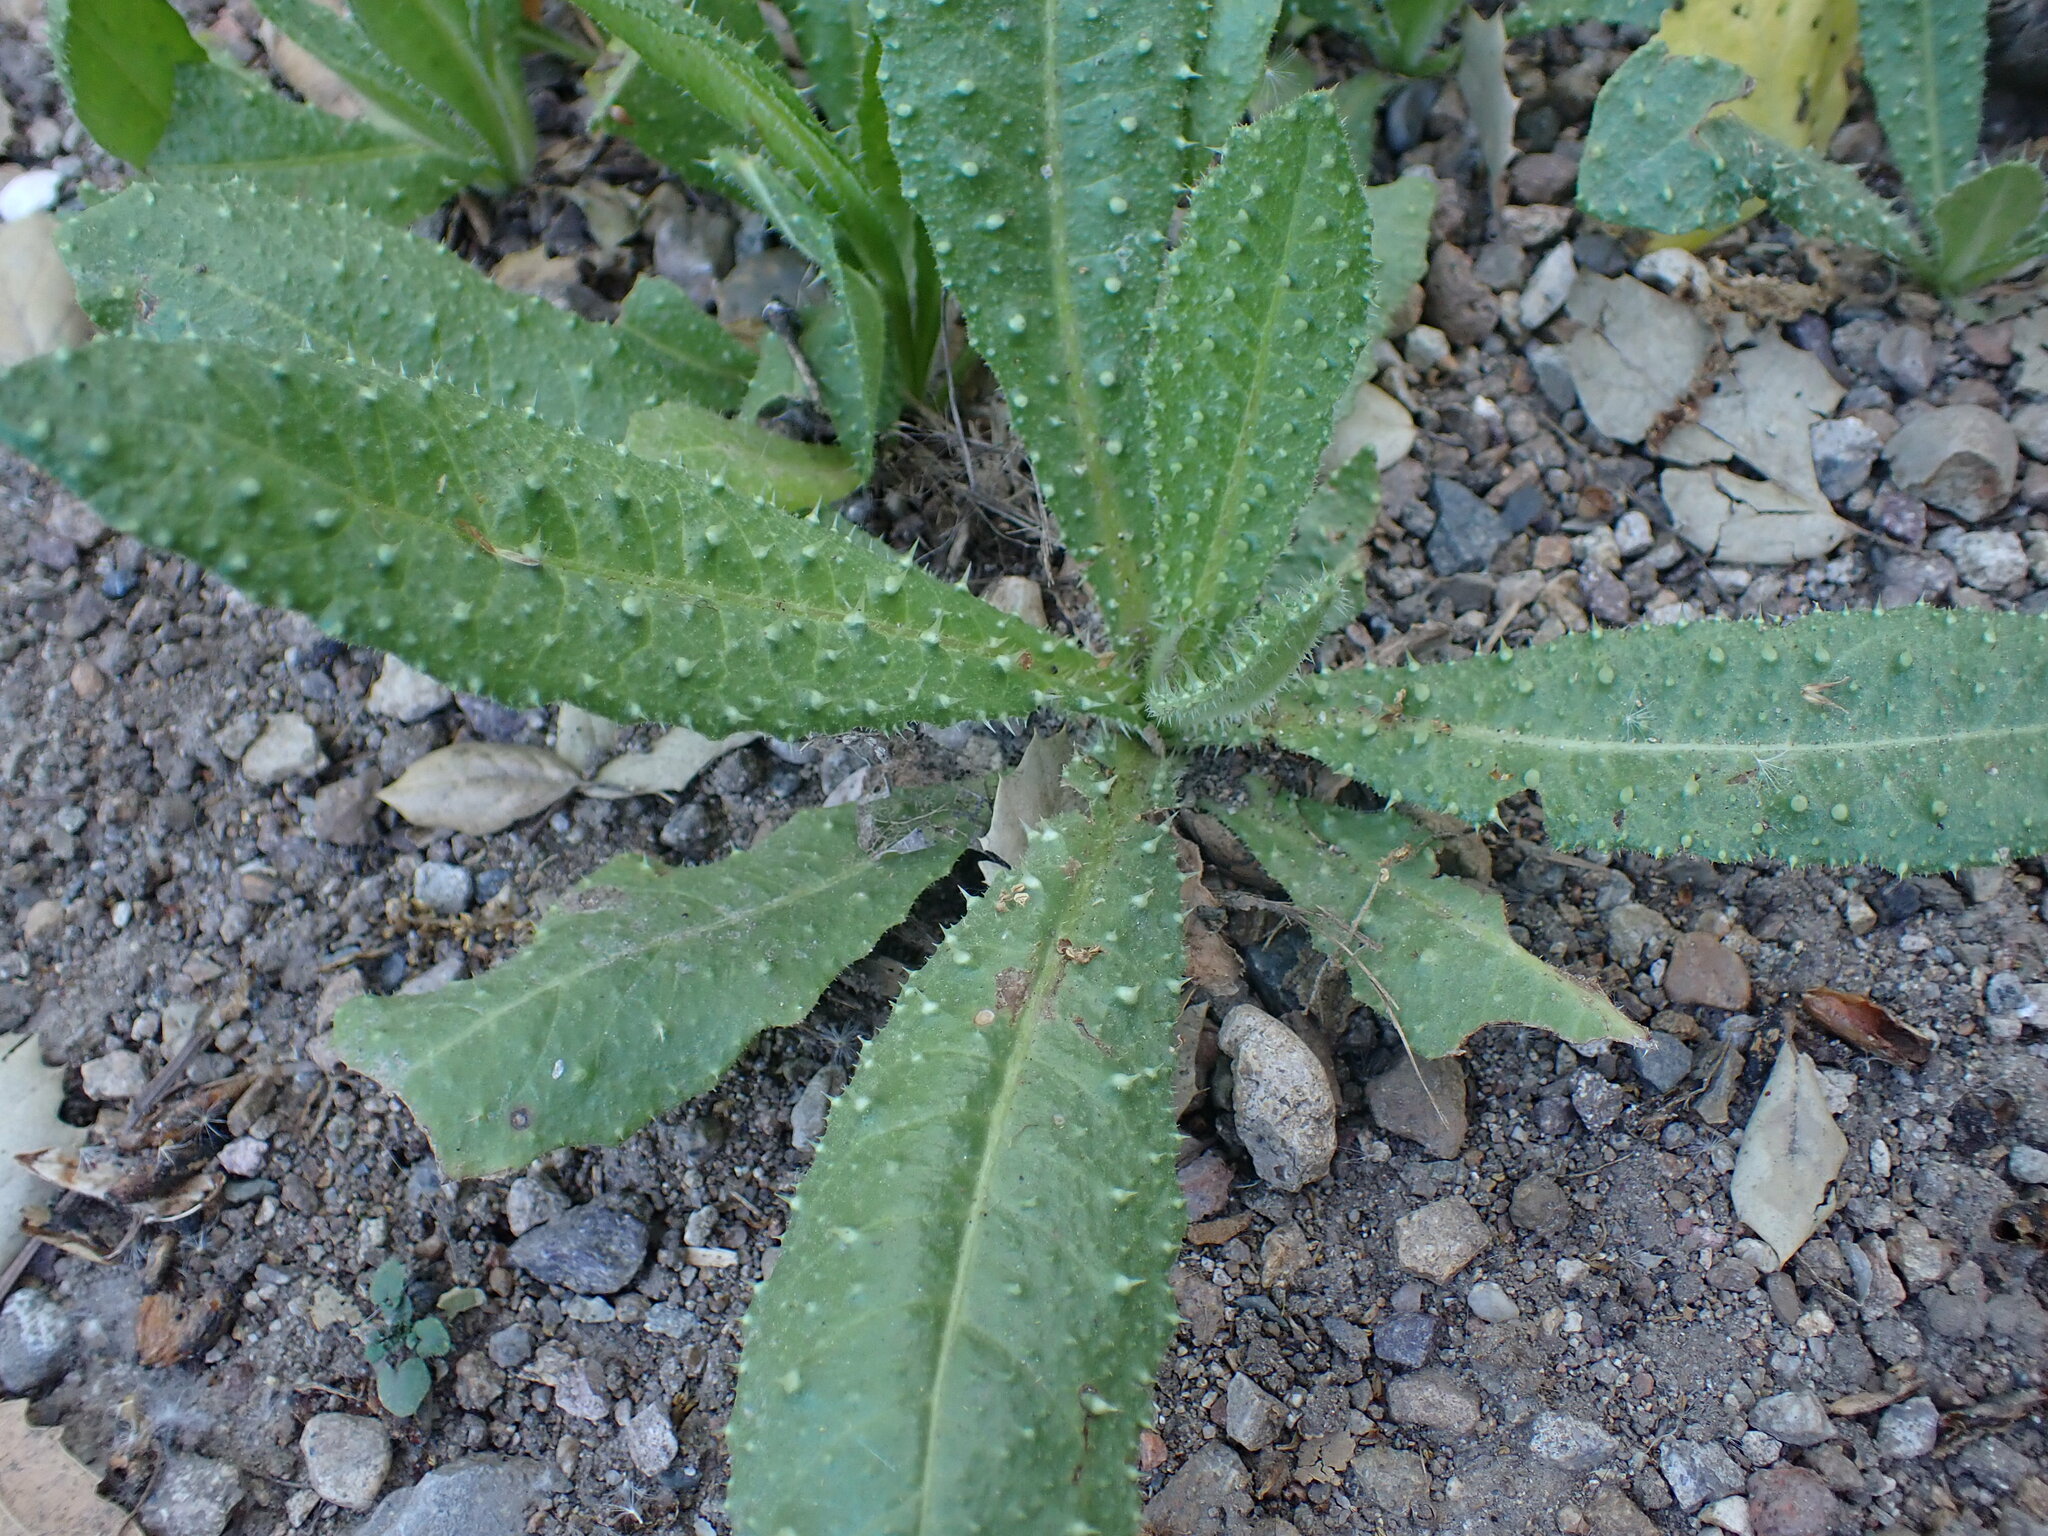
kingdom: Plantae
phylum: Tracheophyta
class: Magnoliopsida
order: Asterales
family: Asteraceae
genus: Helminthotheca
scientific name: Helminthotheca echioides
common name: Ox-tongue
